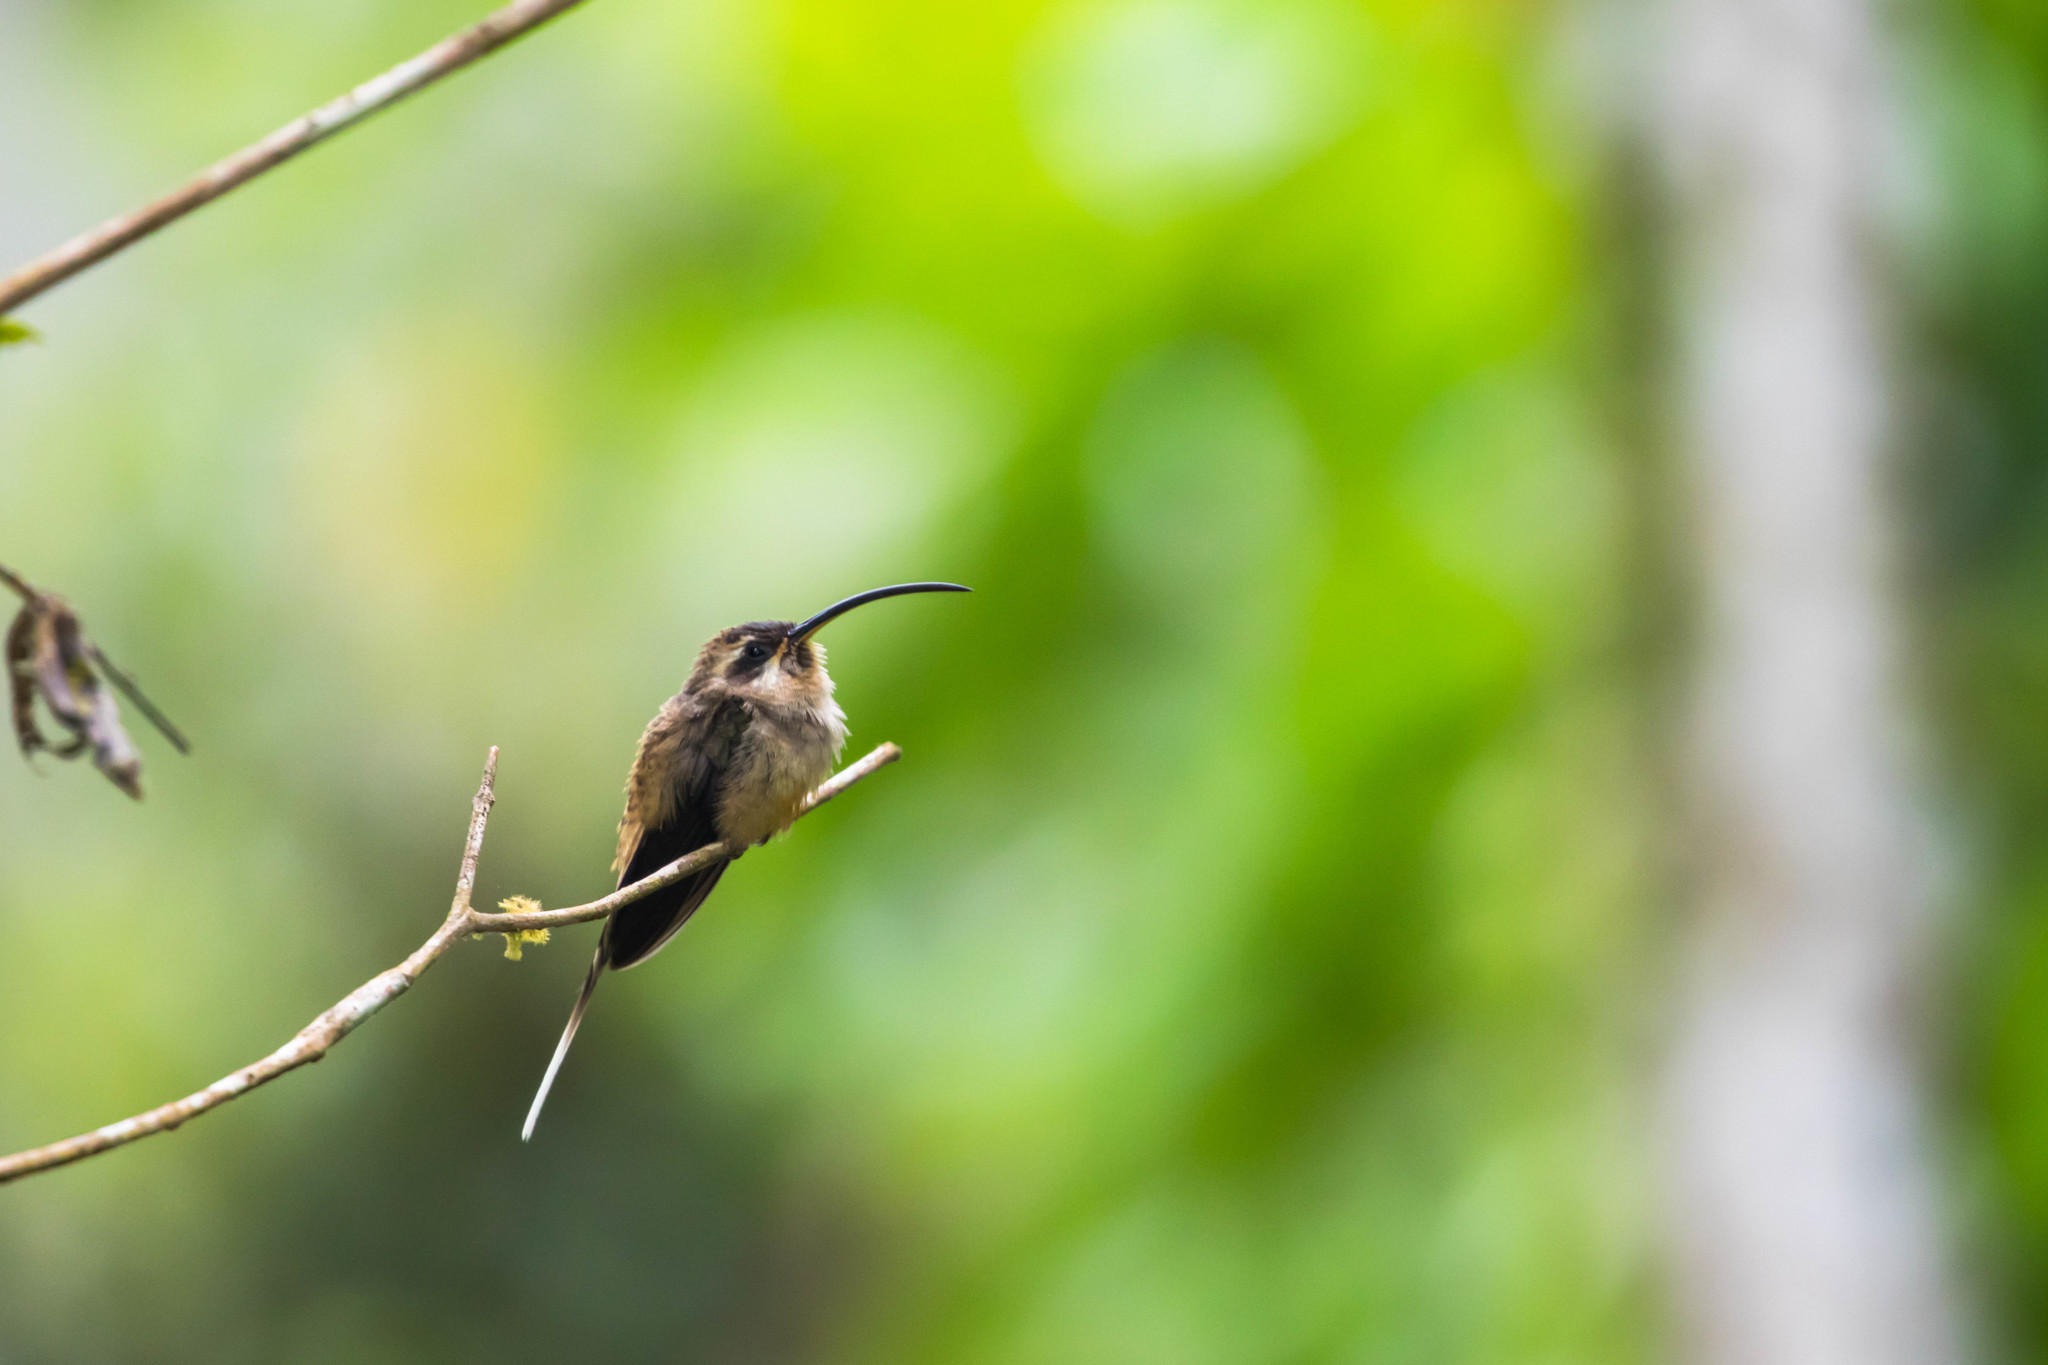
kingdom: Animalia
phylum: Chordata
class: Aves
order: Apodiformes
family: Trochilidae
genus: Phaethornis
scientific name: Phaethornis longirostris
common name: Long-billed hermit
